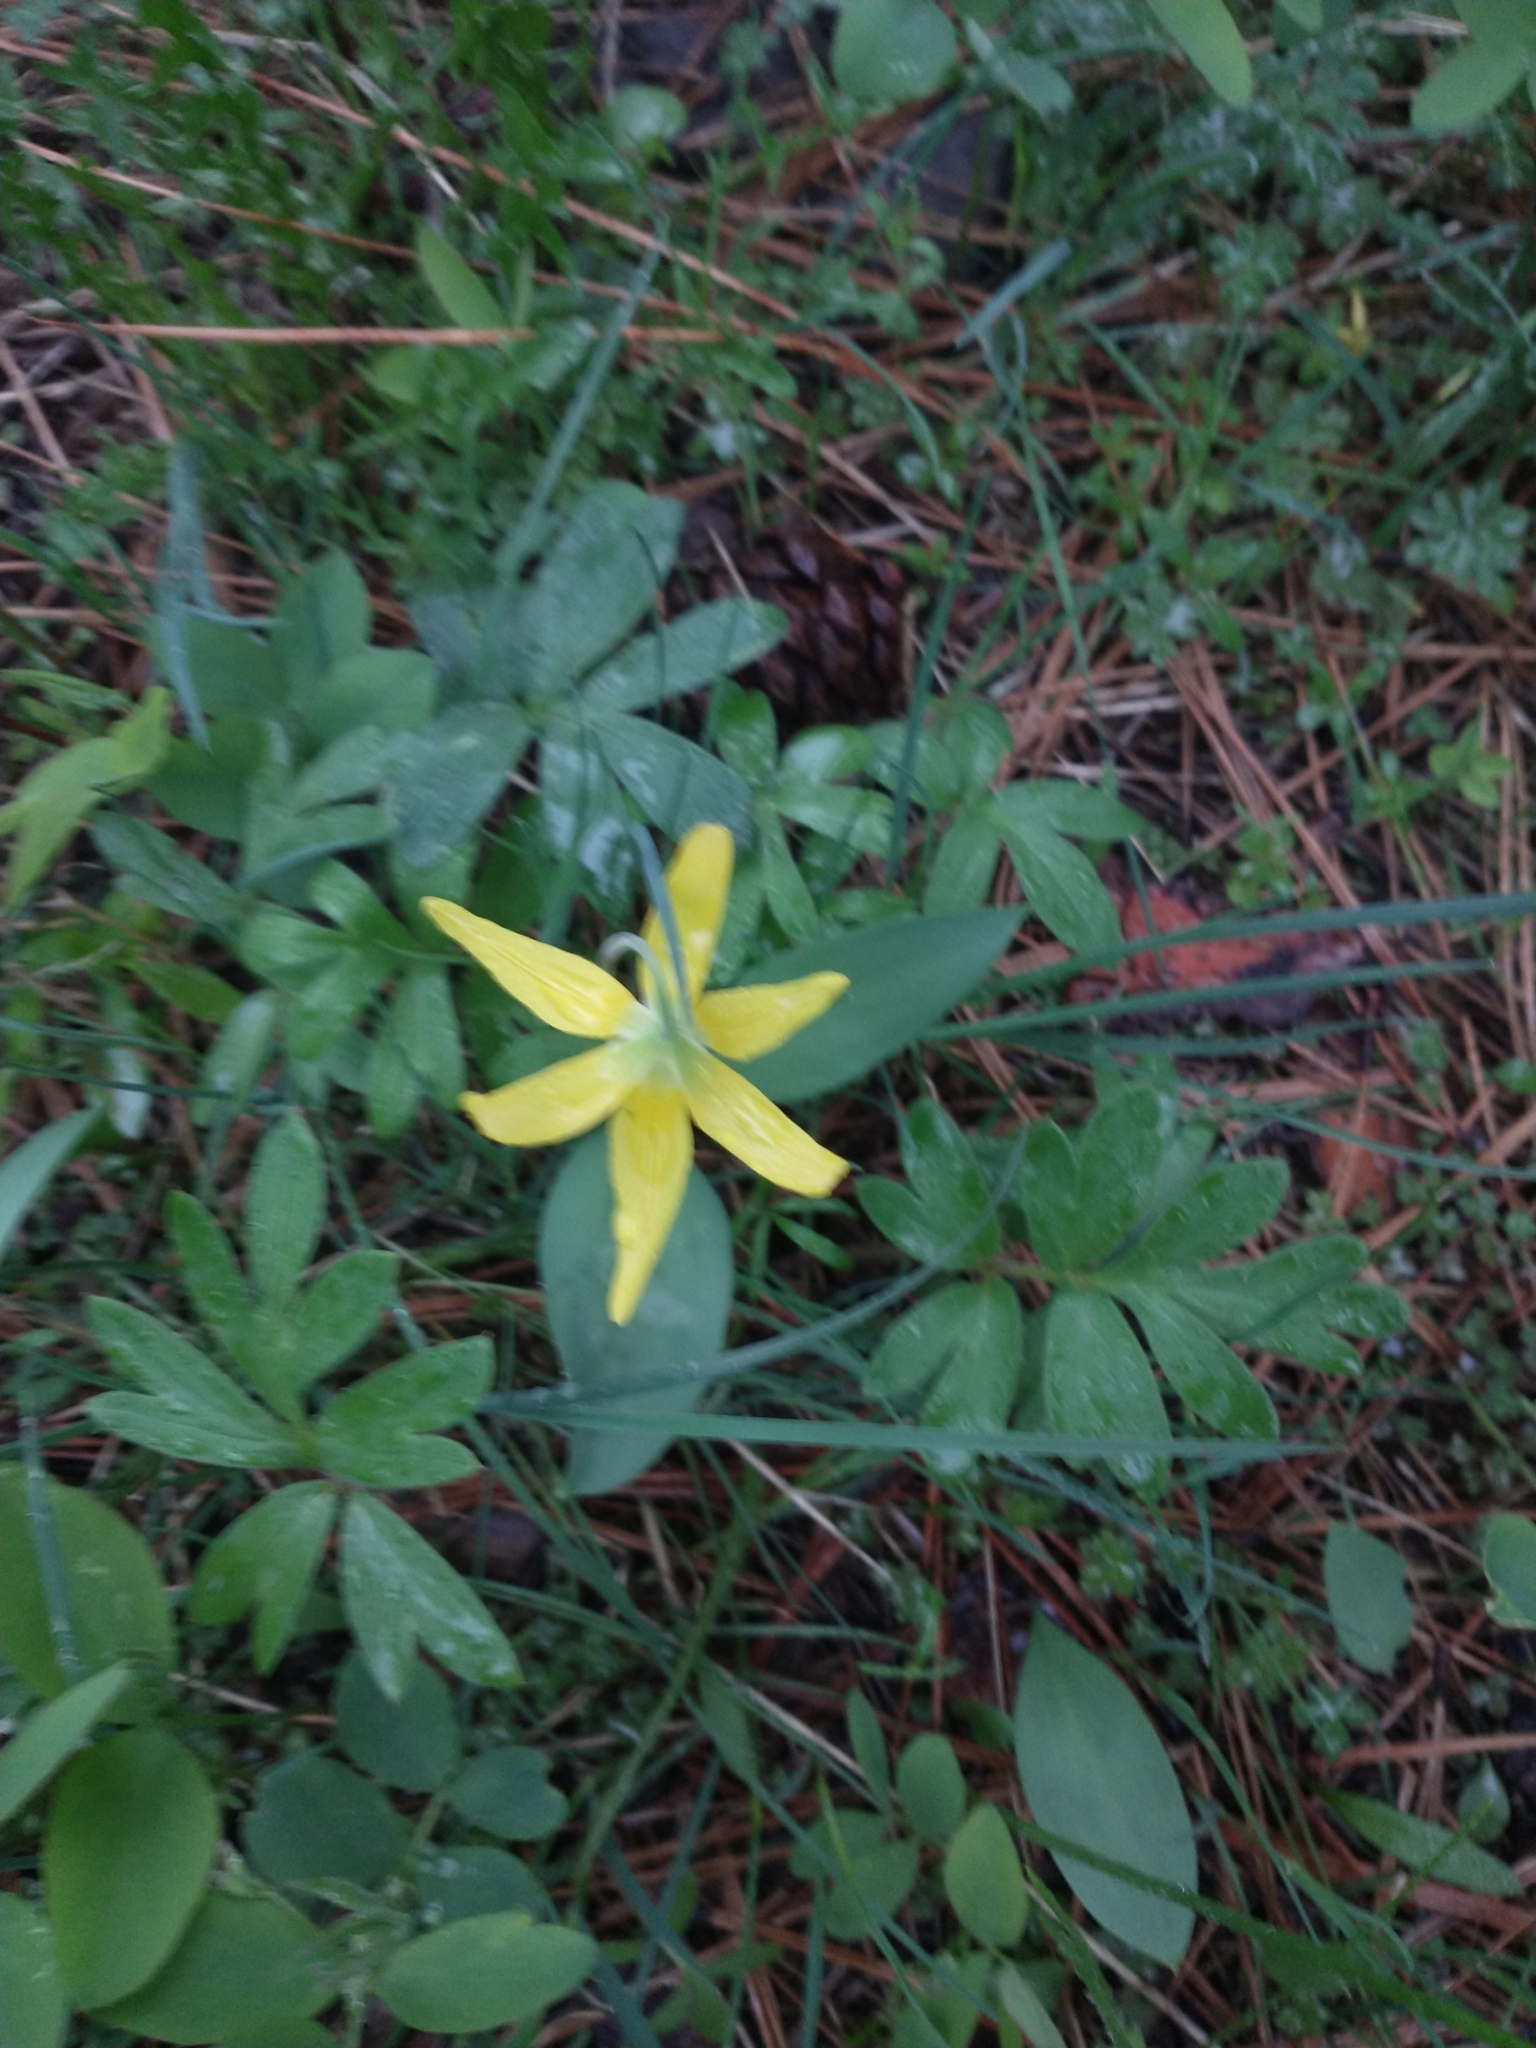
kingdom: Plantae
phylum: Tracheophyta
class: Liliopsida
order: Liliales
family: Liliaceae
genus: Erythronium
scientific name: Erythronium grandiflorum
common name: Avalanche-lily
